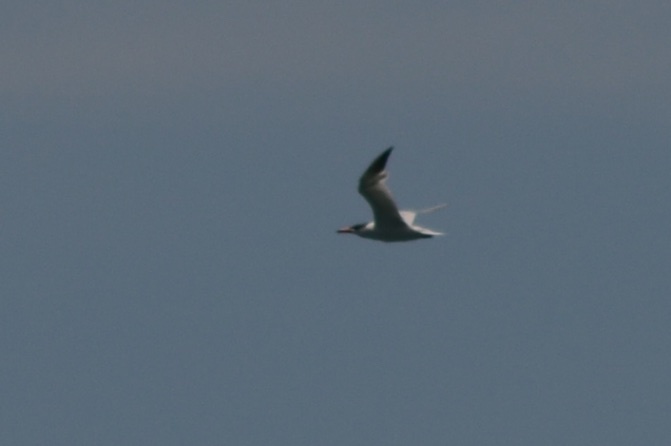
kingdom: Animalia
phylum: Chordata
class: Aves
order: Charadriiformes
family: Laridae
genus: Hydroprogne
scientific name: Hydroprogne caspia
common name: Caspian tern
